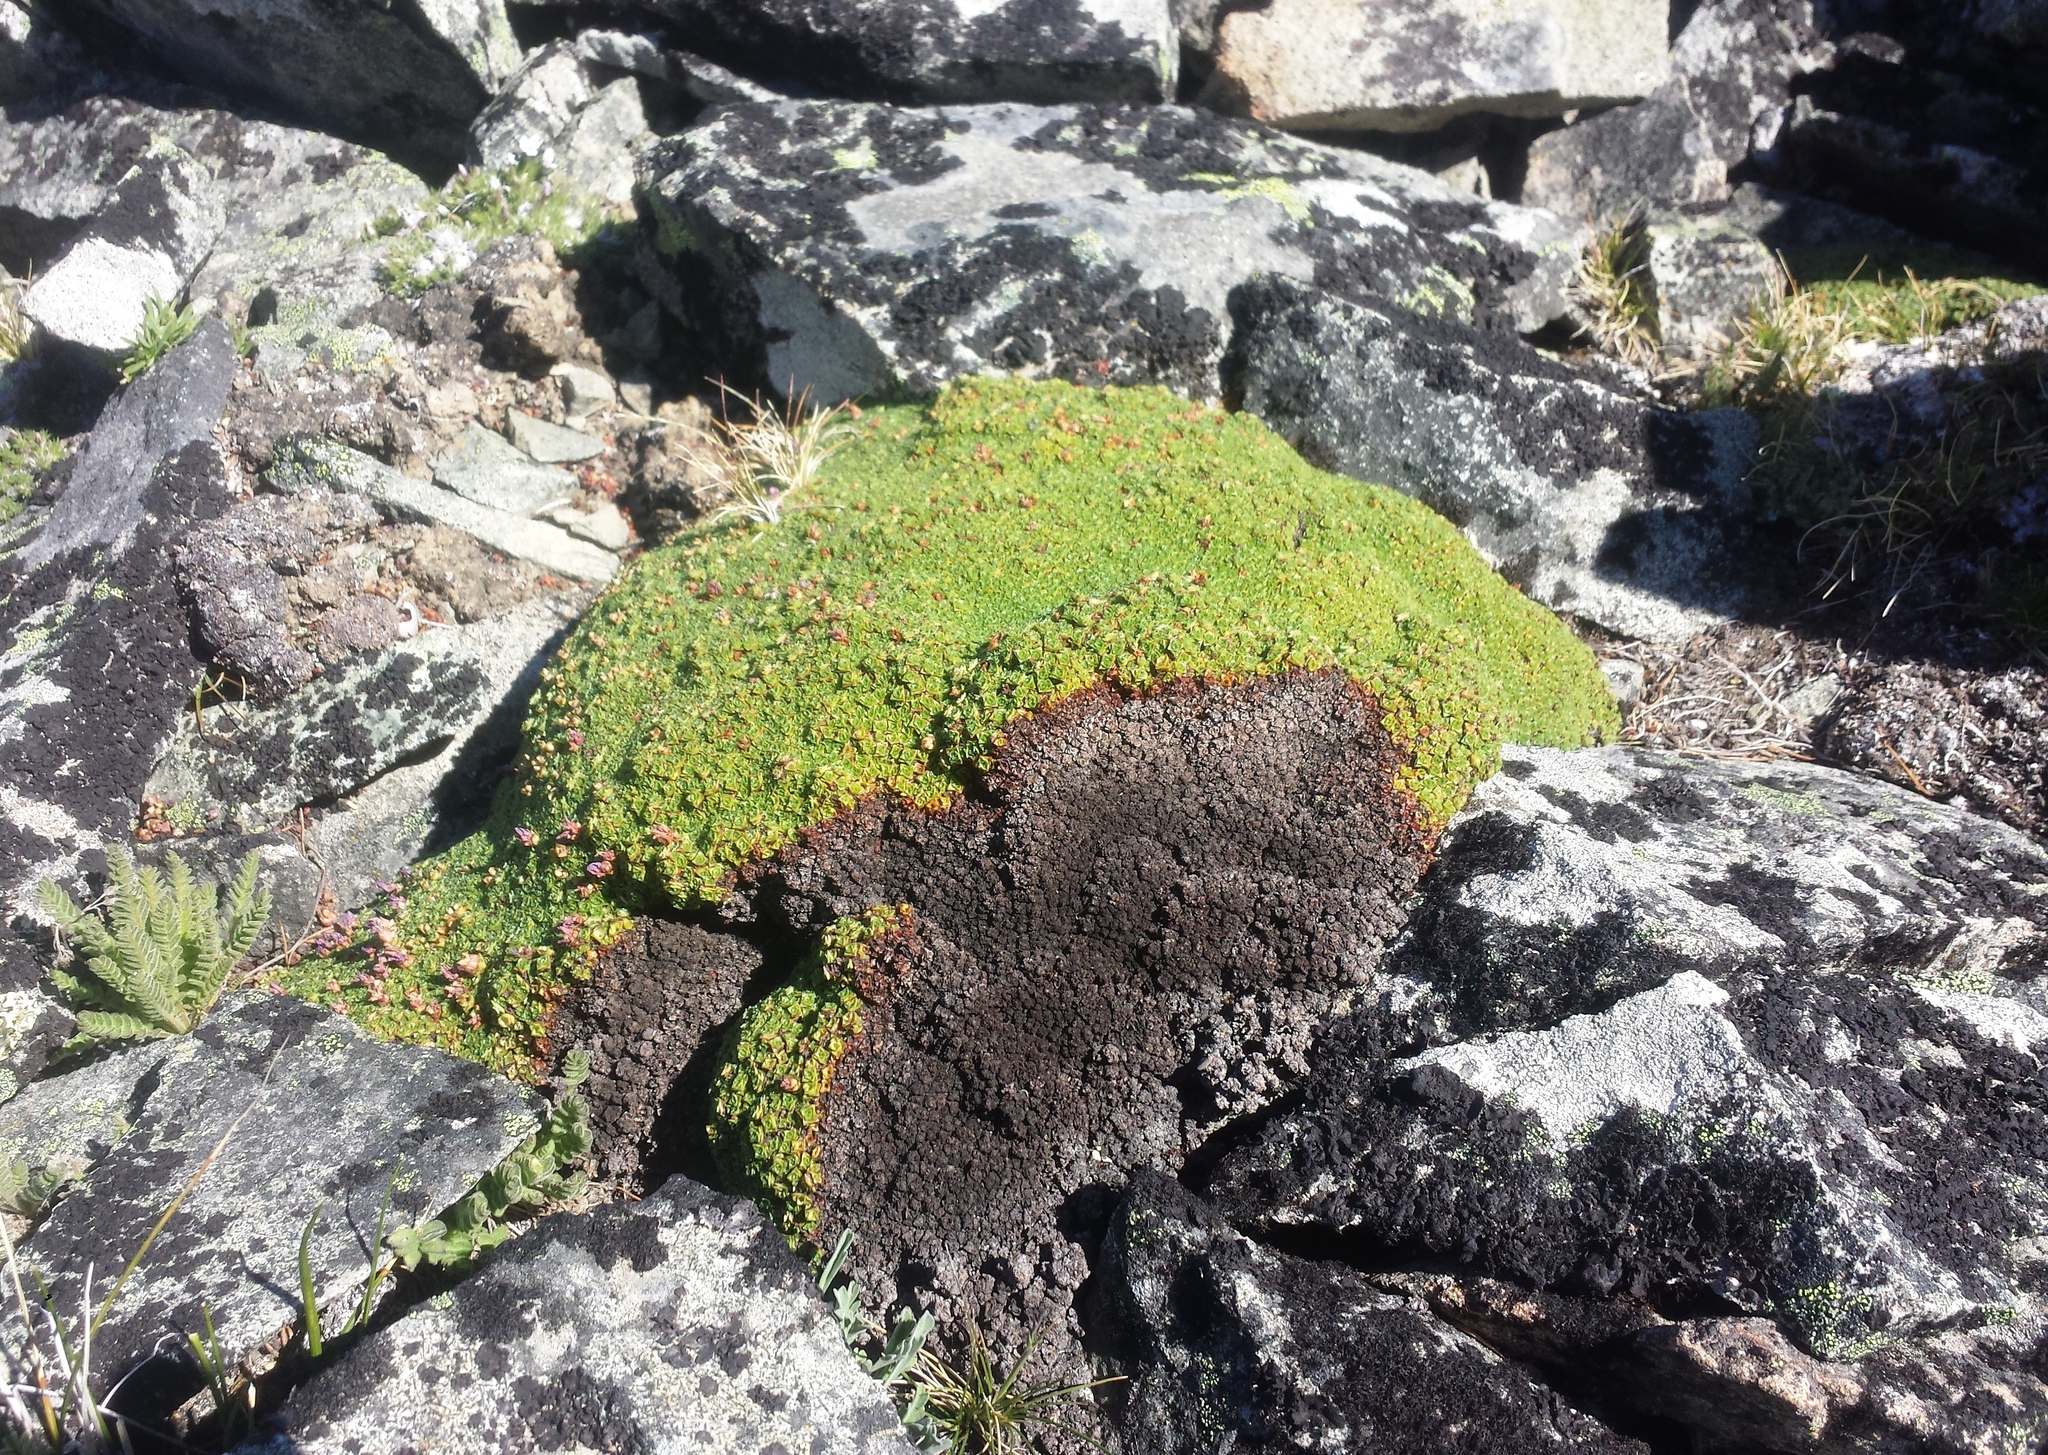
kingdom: Plantae
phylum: Tracheophyta
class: Magnoliopsida
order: Saxifragales
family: Saxifragaceae
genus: Saxifraga
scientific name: Saxifraga oppositifolia
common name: Purple saxifrage
